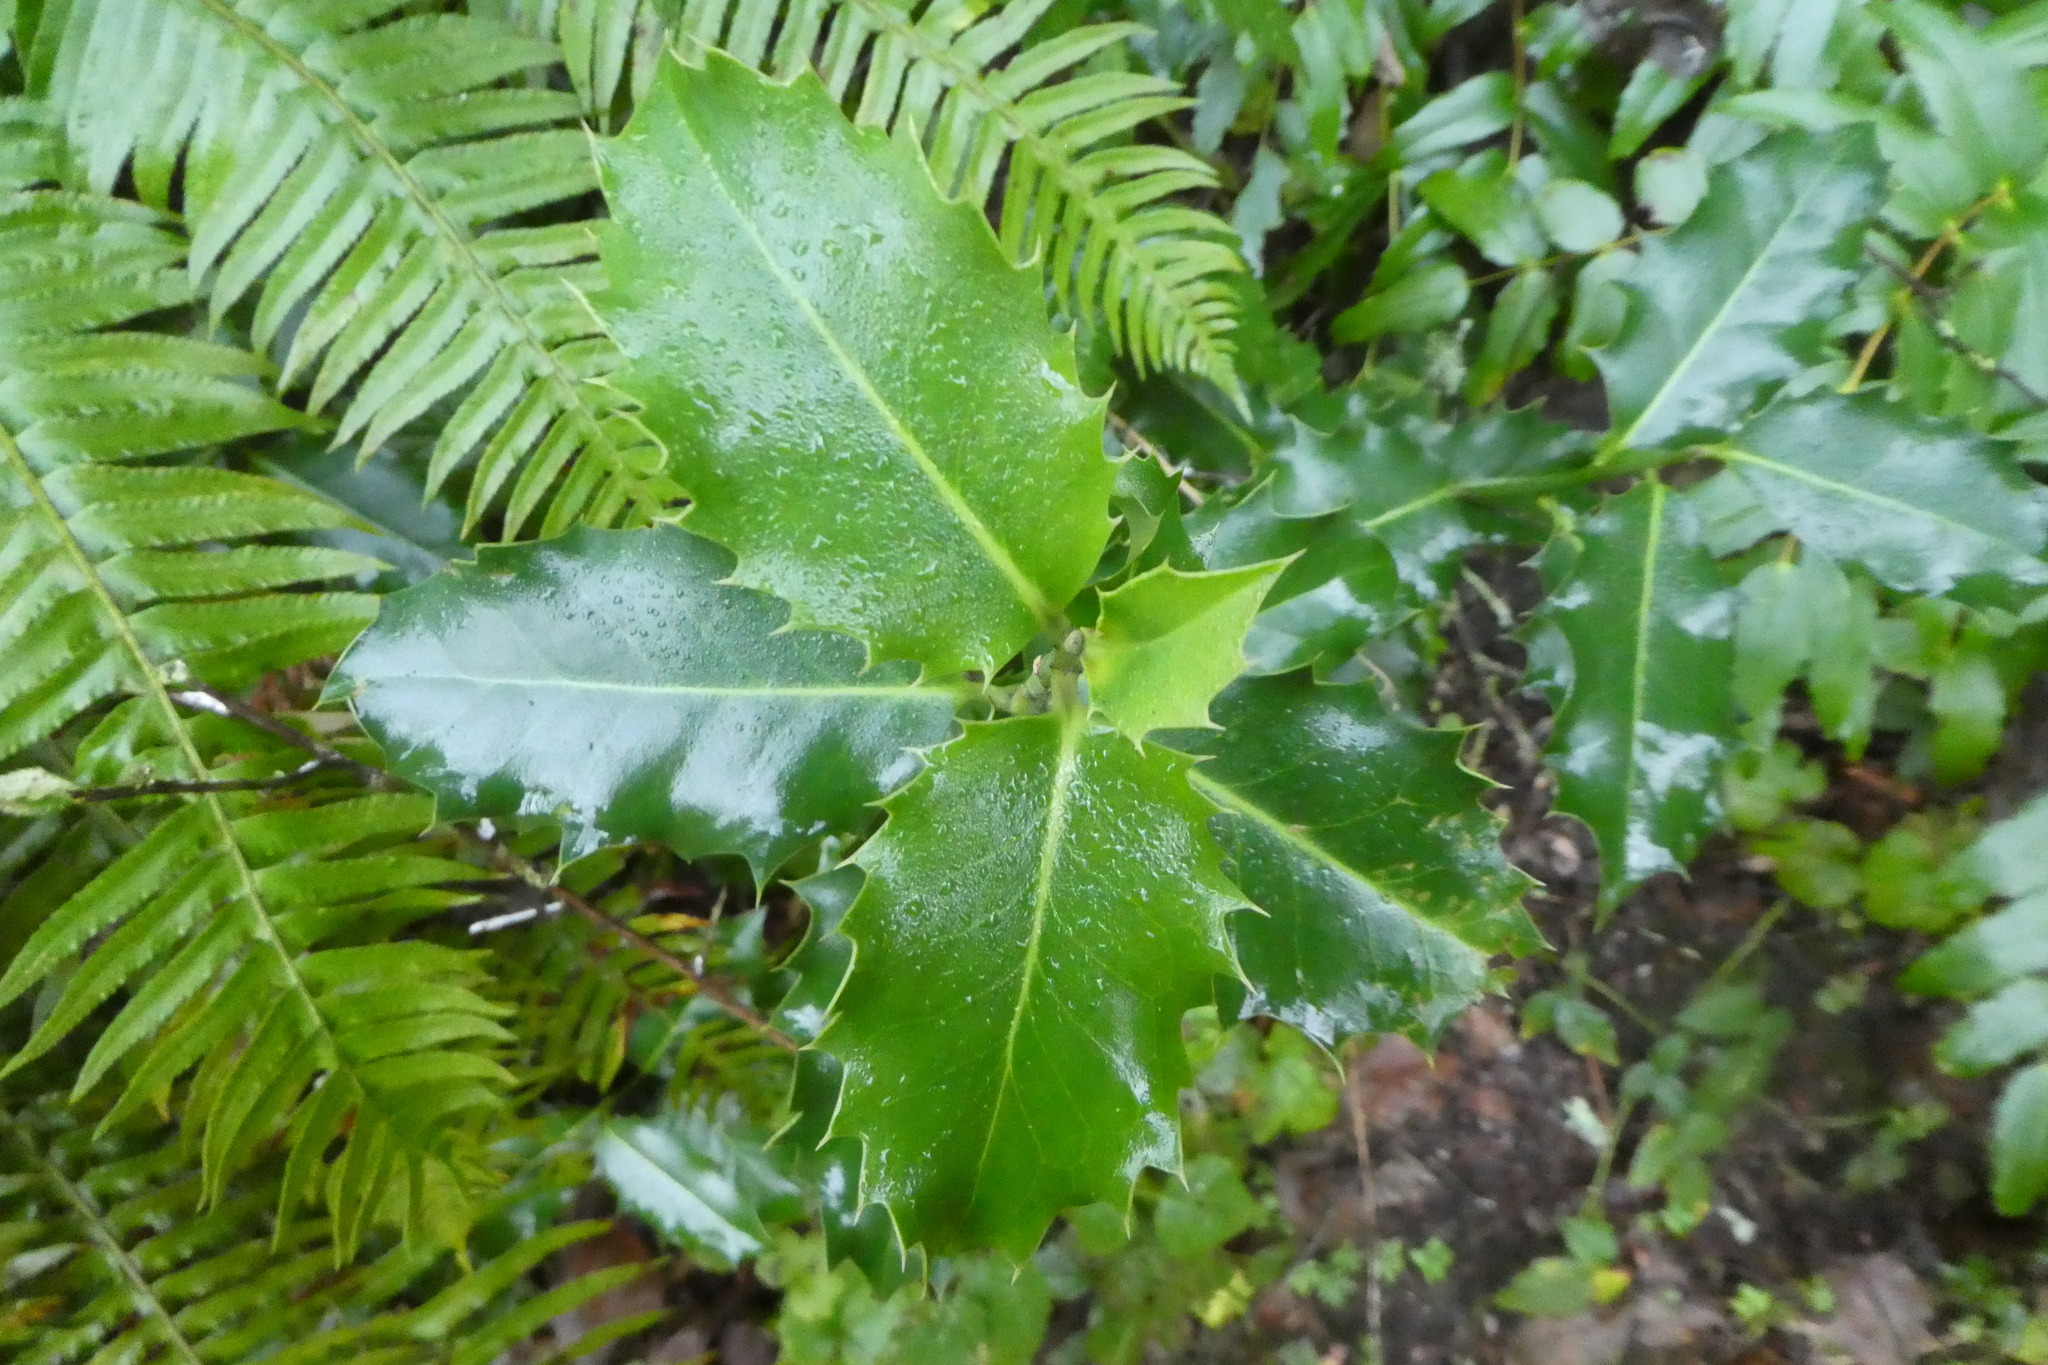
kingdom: Plantae
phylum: Tracheophyta
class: Magnoliopsida
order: Aquifoliales
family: Aquifoliaceae
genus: Ilex
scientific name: Ilex aquifolium
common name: English holly
